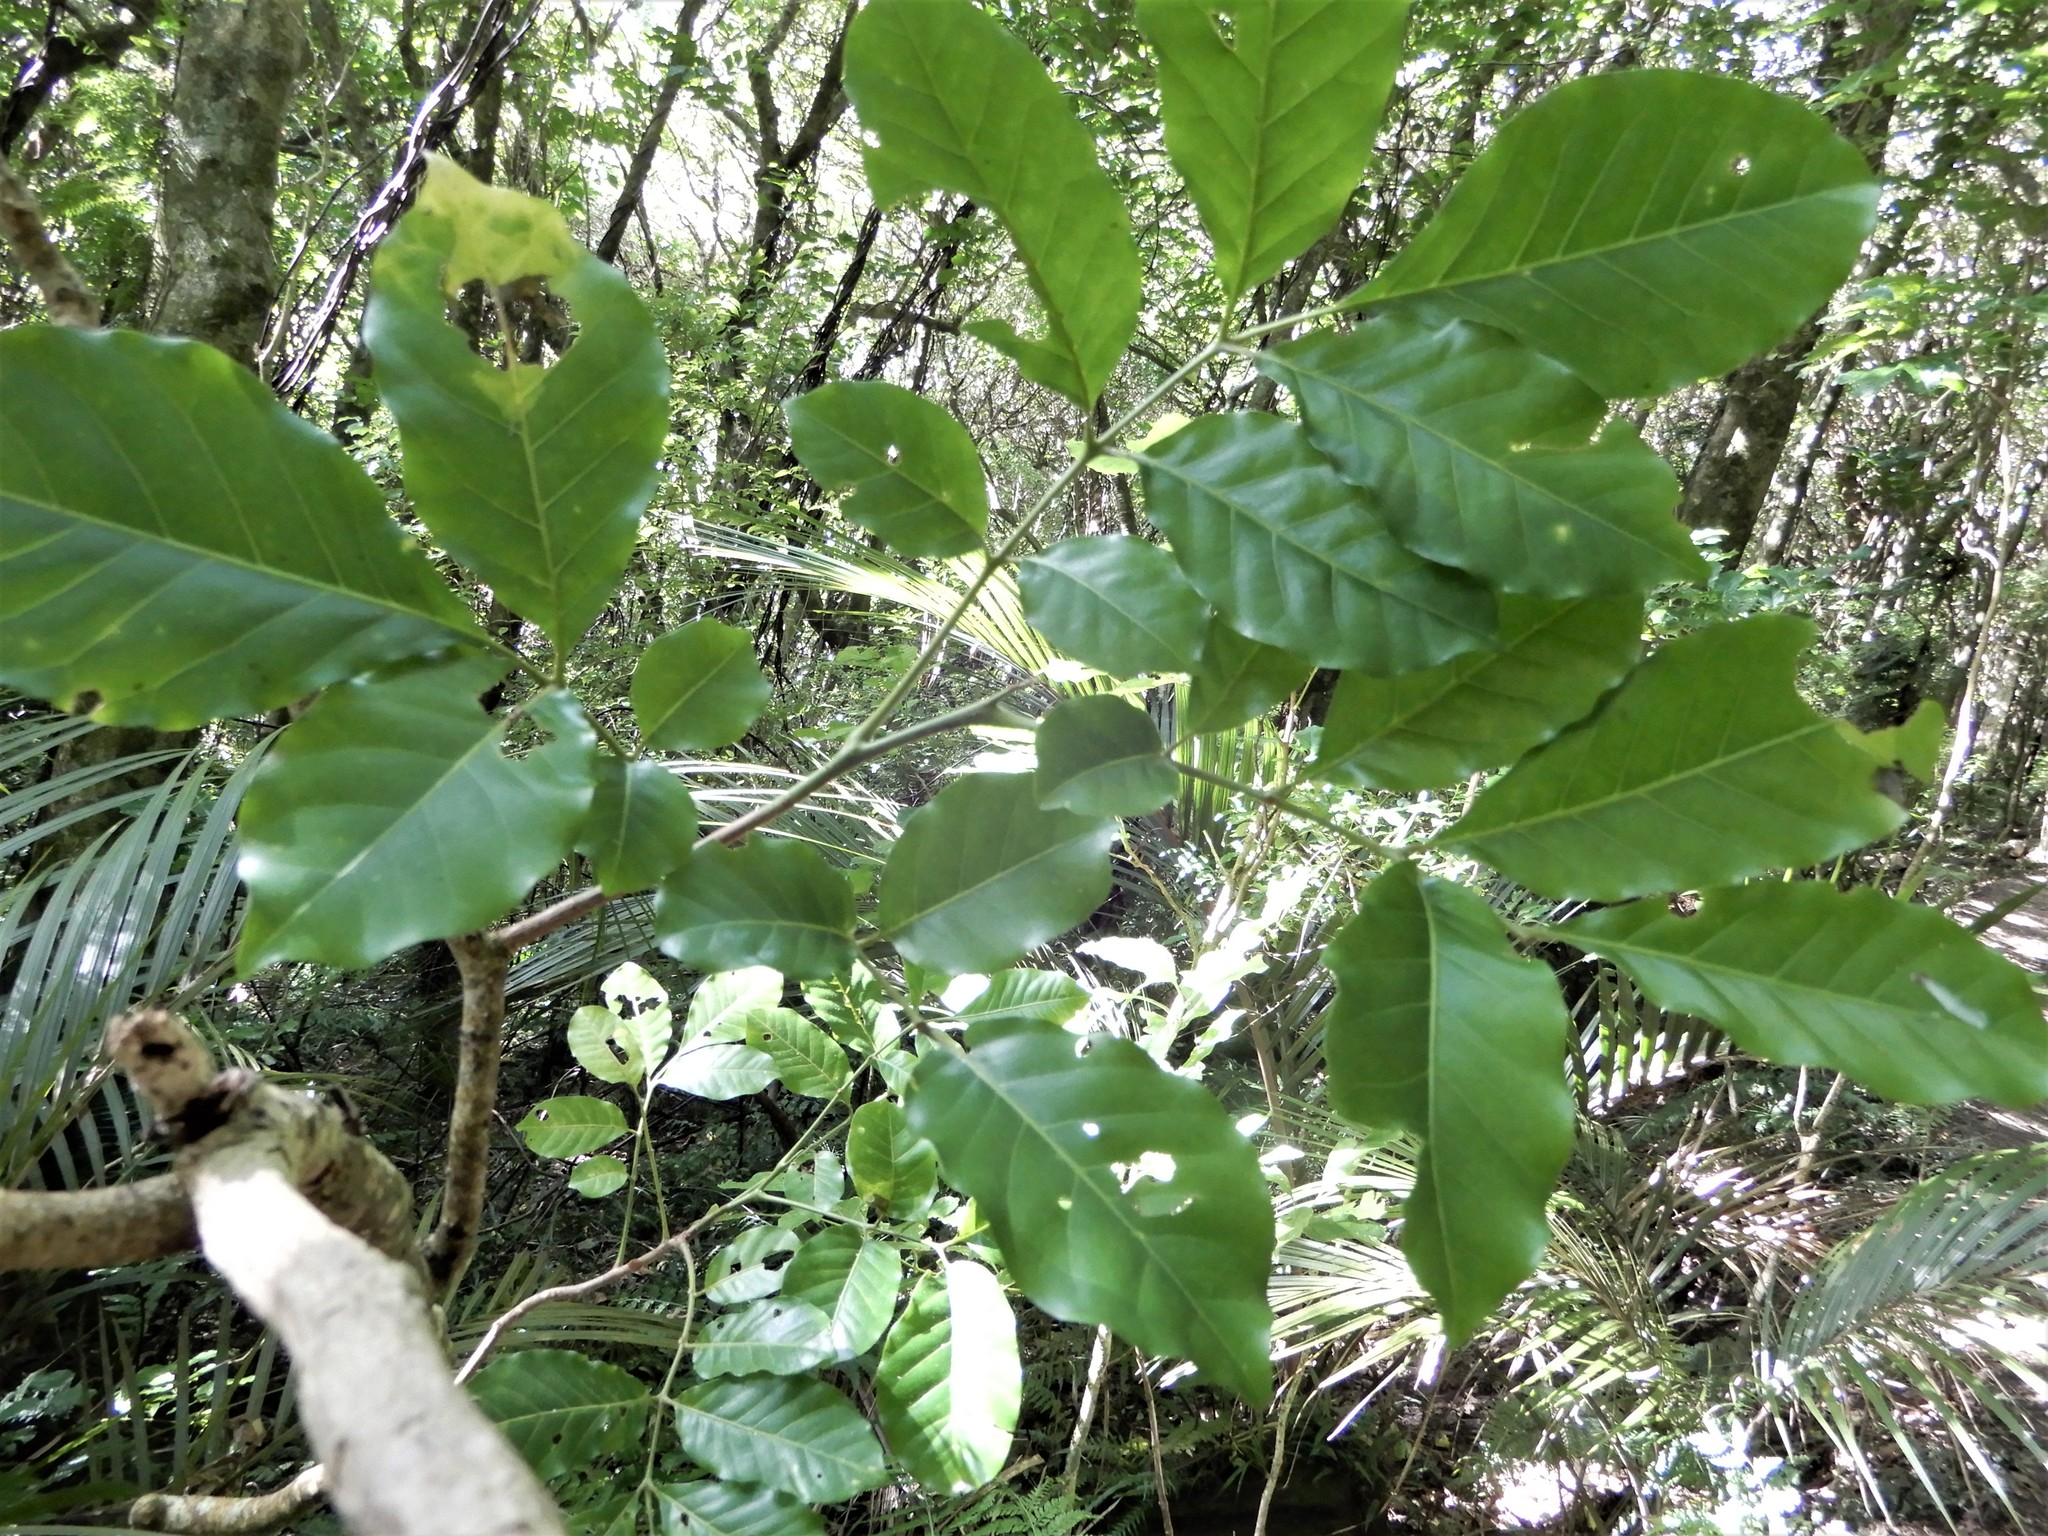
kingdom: Plantae
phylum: Tracheophyta
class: Magnoliopsida
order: Sapindales
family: Meliaceae
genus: Didymocheton
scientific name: Didymocheton spectabilis
